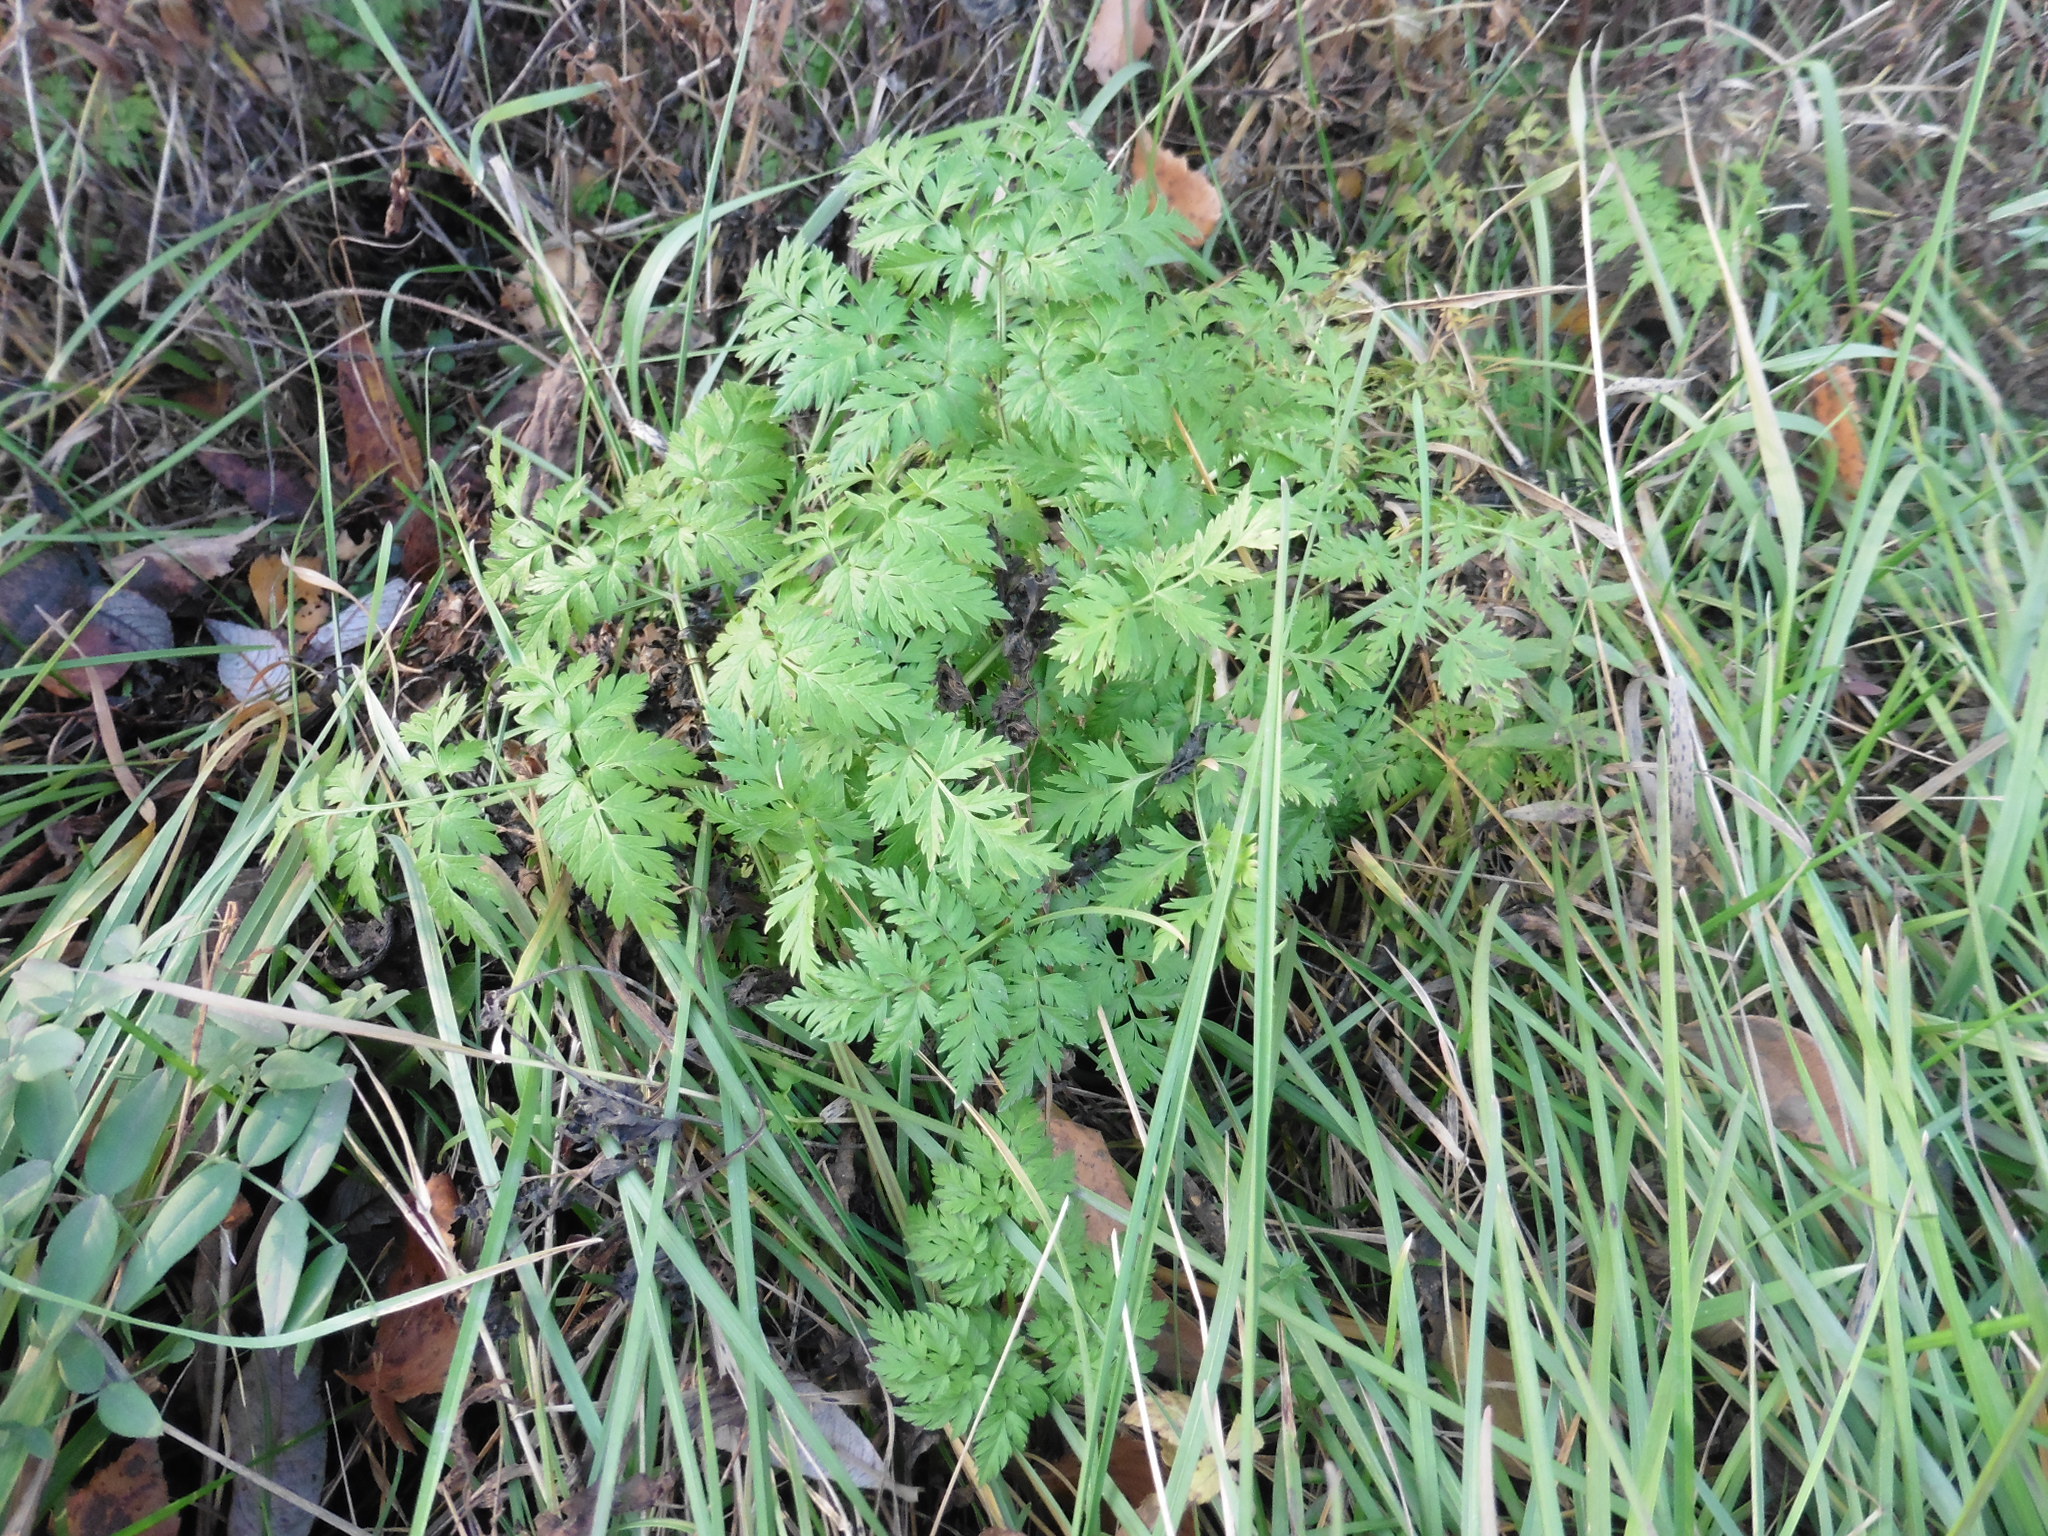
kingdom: Plantae
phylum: Tracheophyta
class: Magnoliopsida
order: Apiales
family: Apiaceae
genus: Anthriscus
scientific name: Anthriscus sylvestris
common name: Cow parsley
